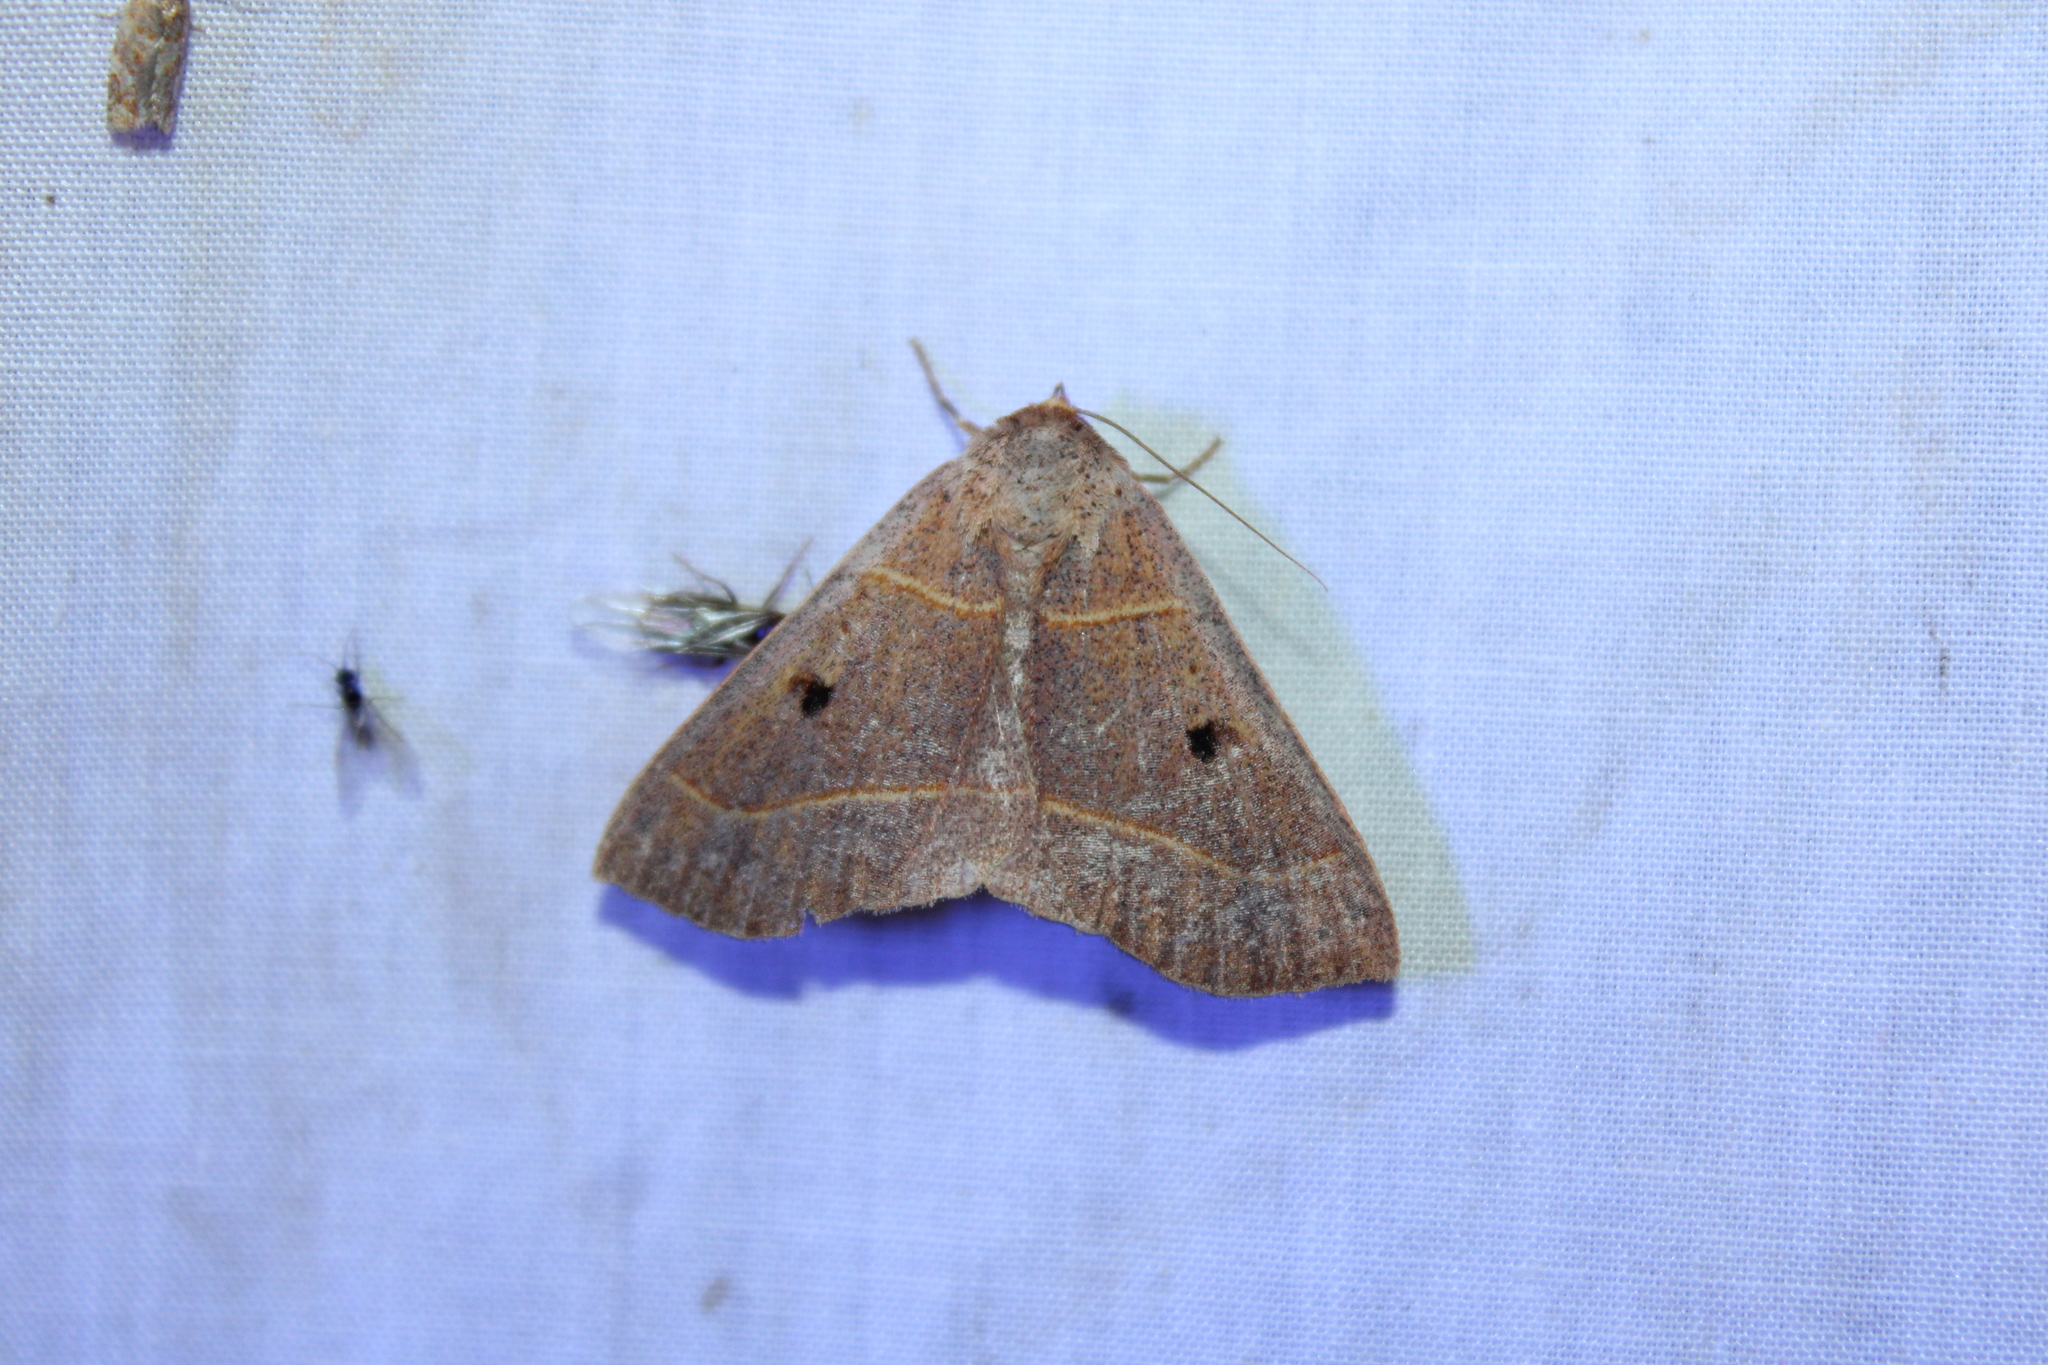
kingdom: Animalia
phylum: Arthropoda
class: Insecta
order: Lepidoptera
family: Erebidae
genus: Panopoda
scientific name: Panopoda rufimargo
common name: Red-lined panopoda moth
